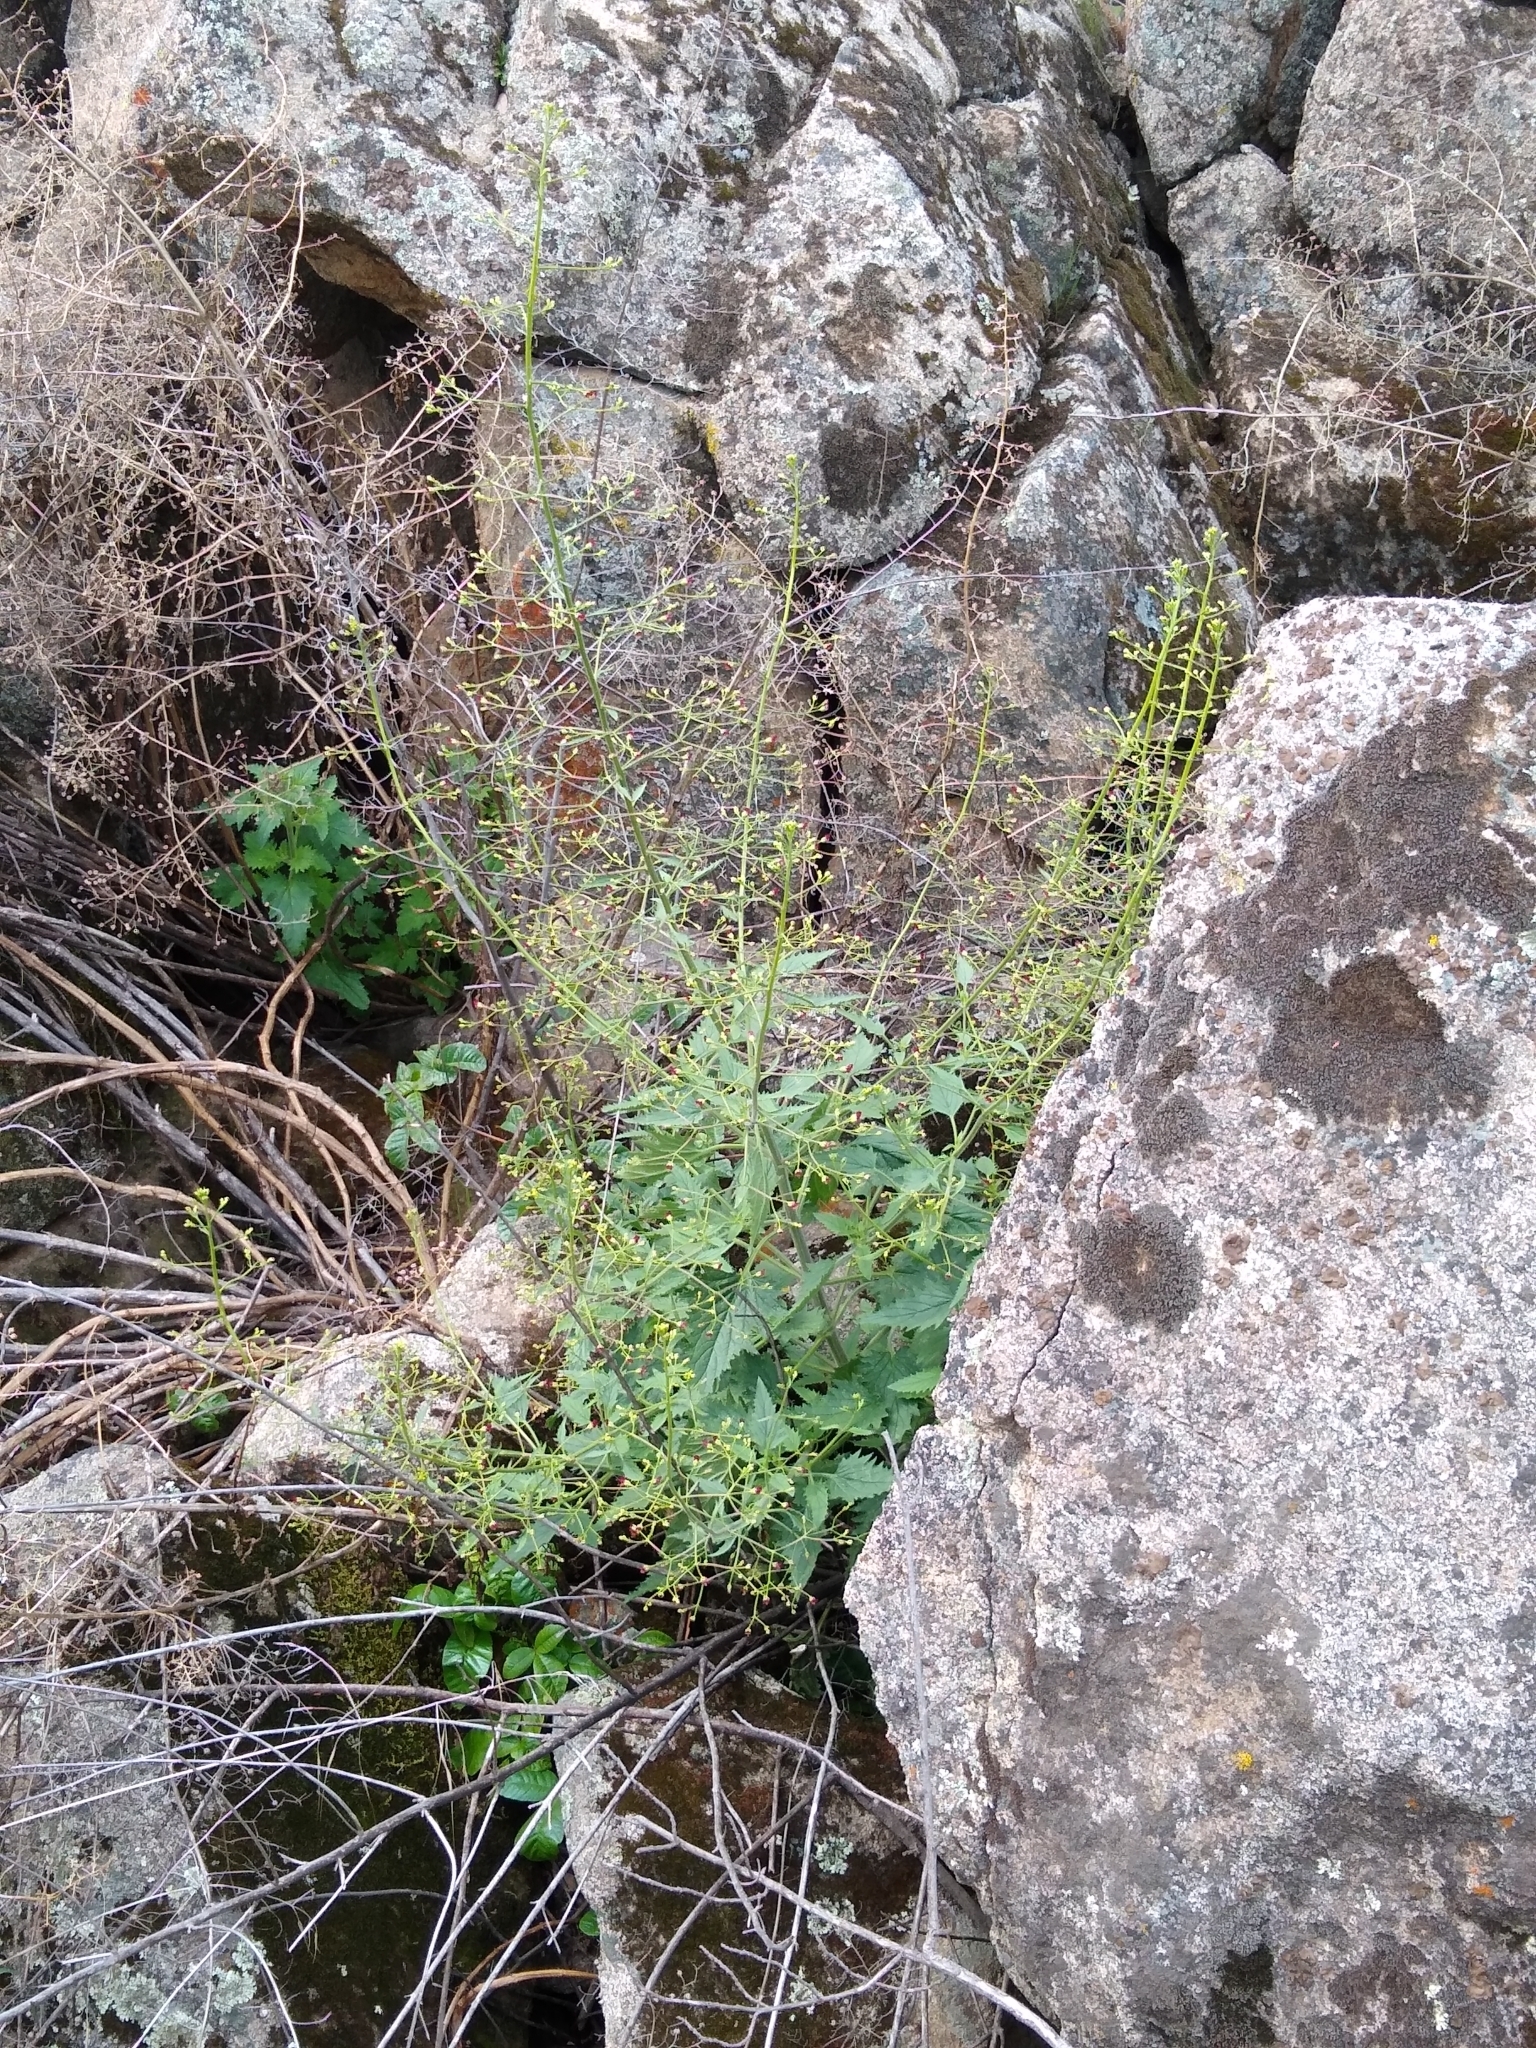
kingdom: Plantae
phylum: Tracheophyta
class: Magnoliopsida
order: Lamiales
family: Scrophulariaceae
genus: Scrophularia
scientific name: Scrophularia californica
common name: California figwort
